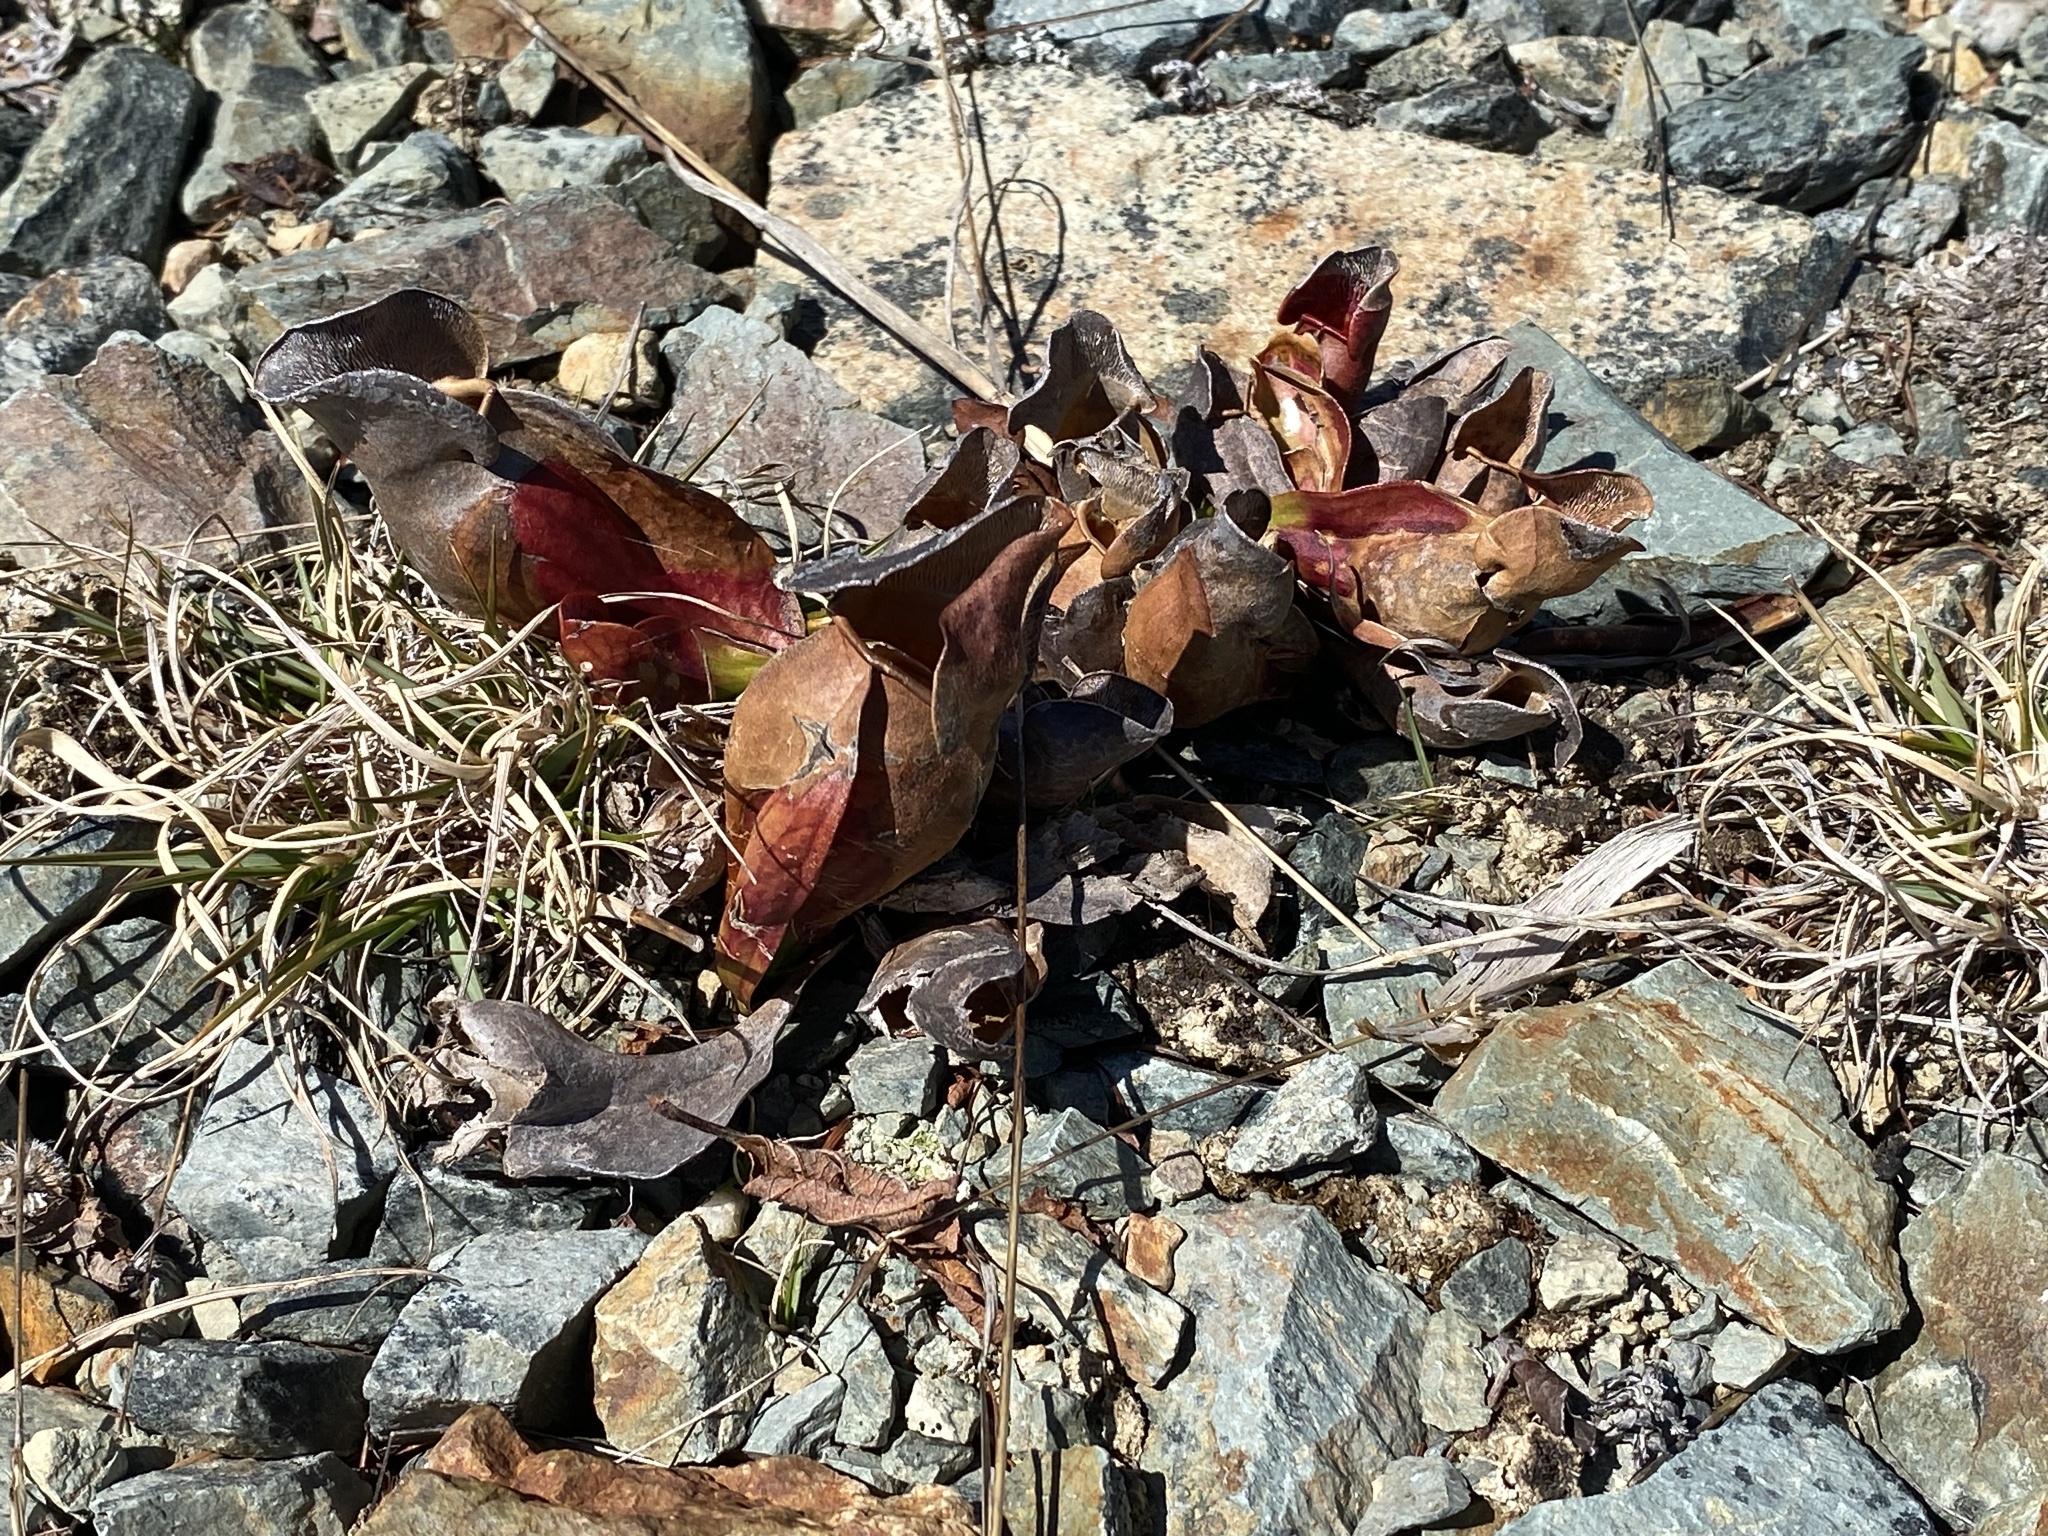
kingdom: Plantae
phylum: Tracheophyta
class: Magnoliopsida
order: Ericales
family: Sarraceniaceae
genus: Sarracenia
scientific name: Sarracenia purpurea
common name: Pitcherplant
